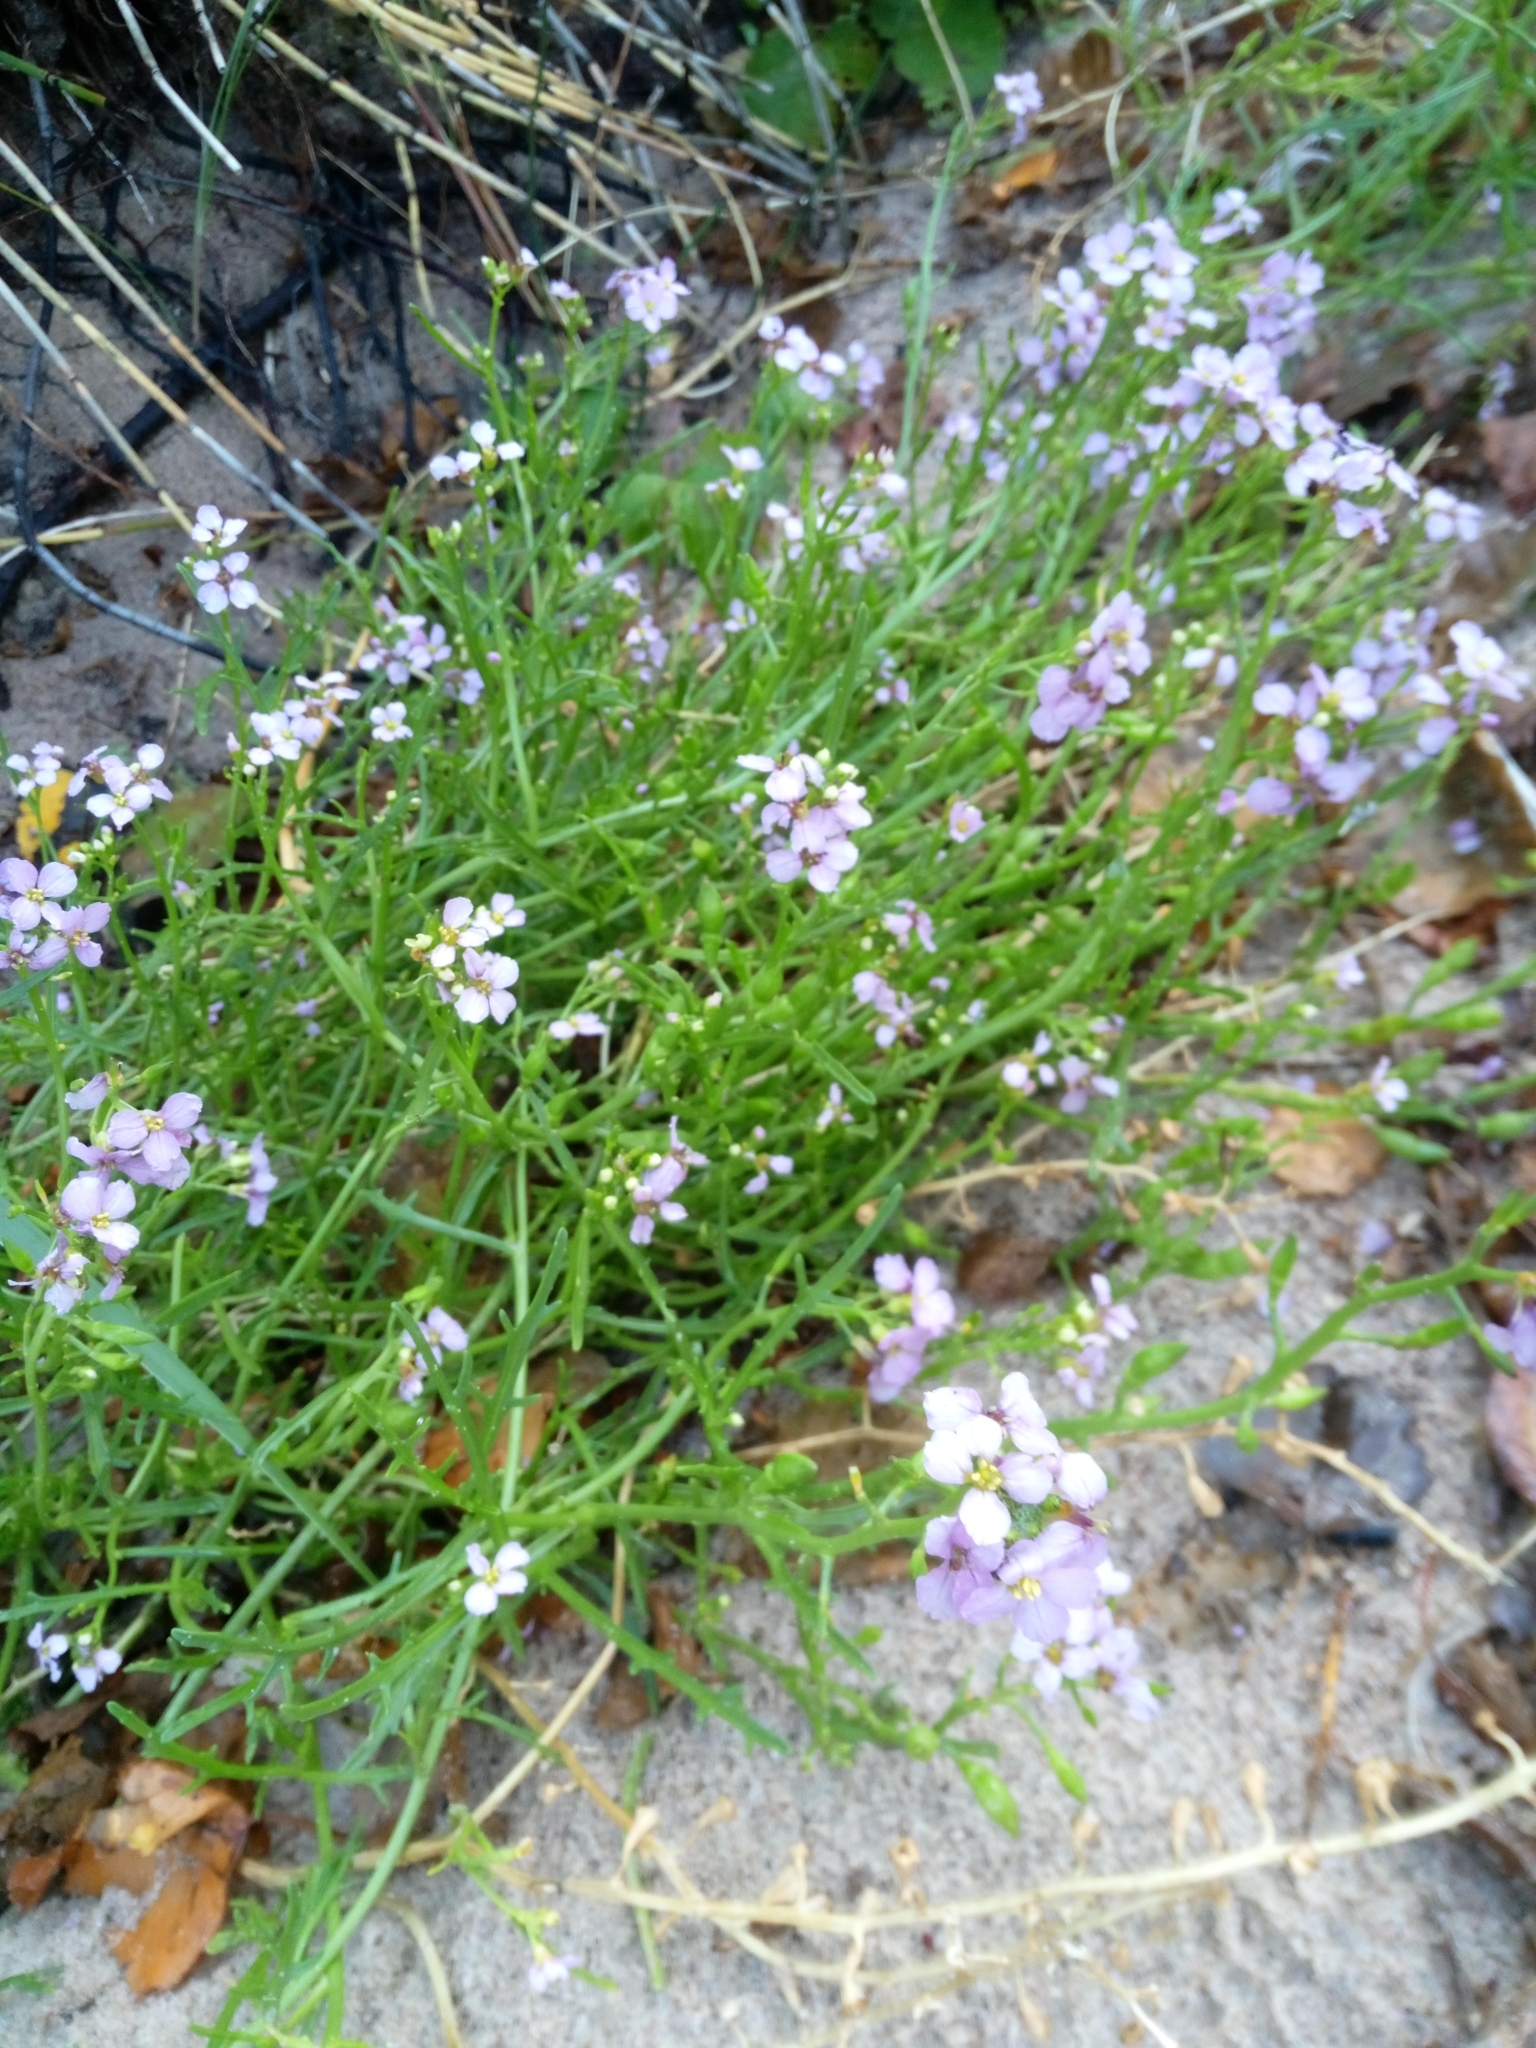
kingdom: Plantae
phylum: Tracheophyta
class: Magnoliopsida
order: Brassicales
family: Brassicaceae
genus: Cakile
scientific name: Cakile maritima
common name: Sea rocket
